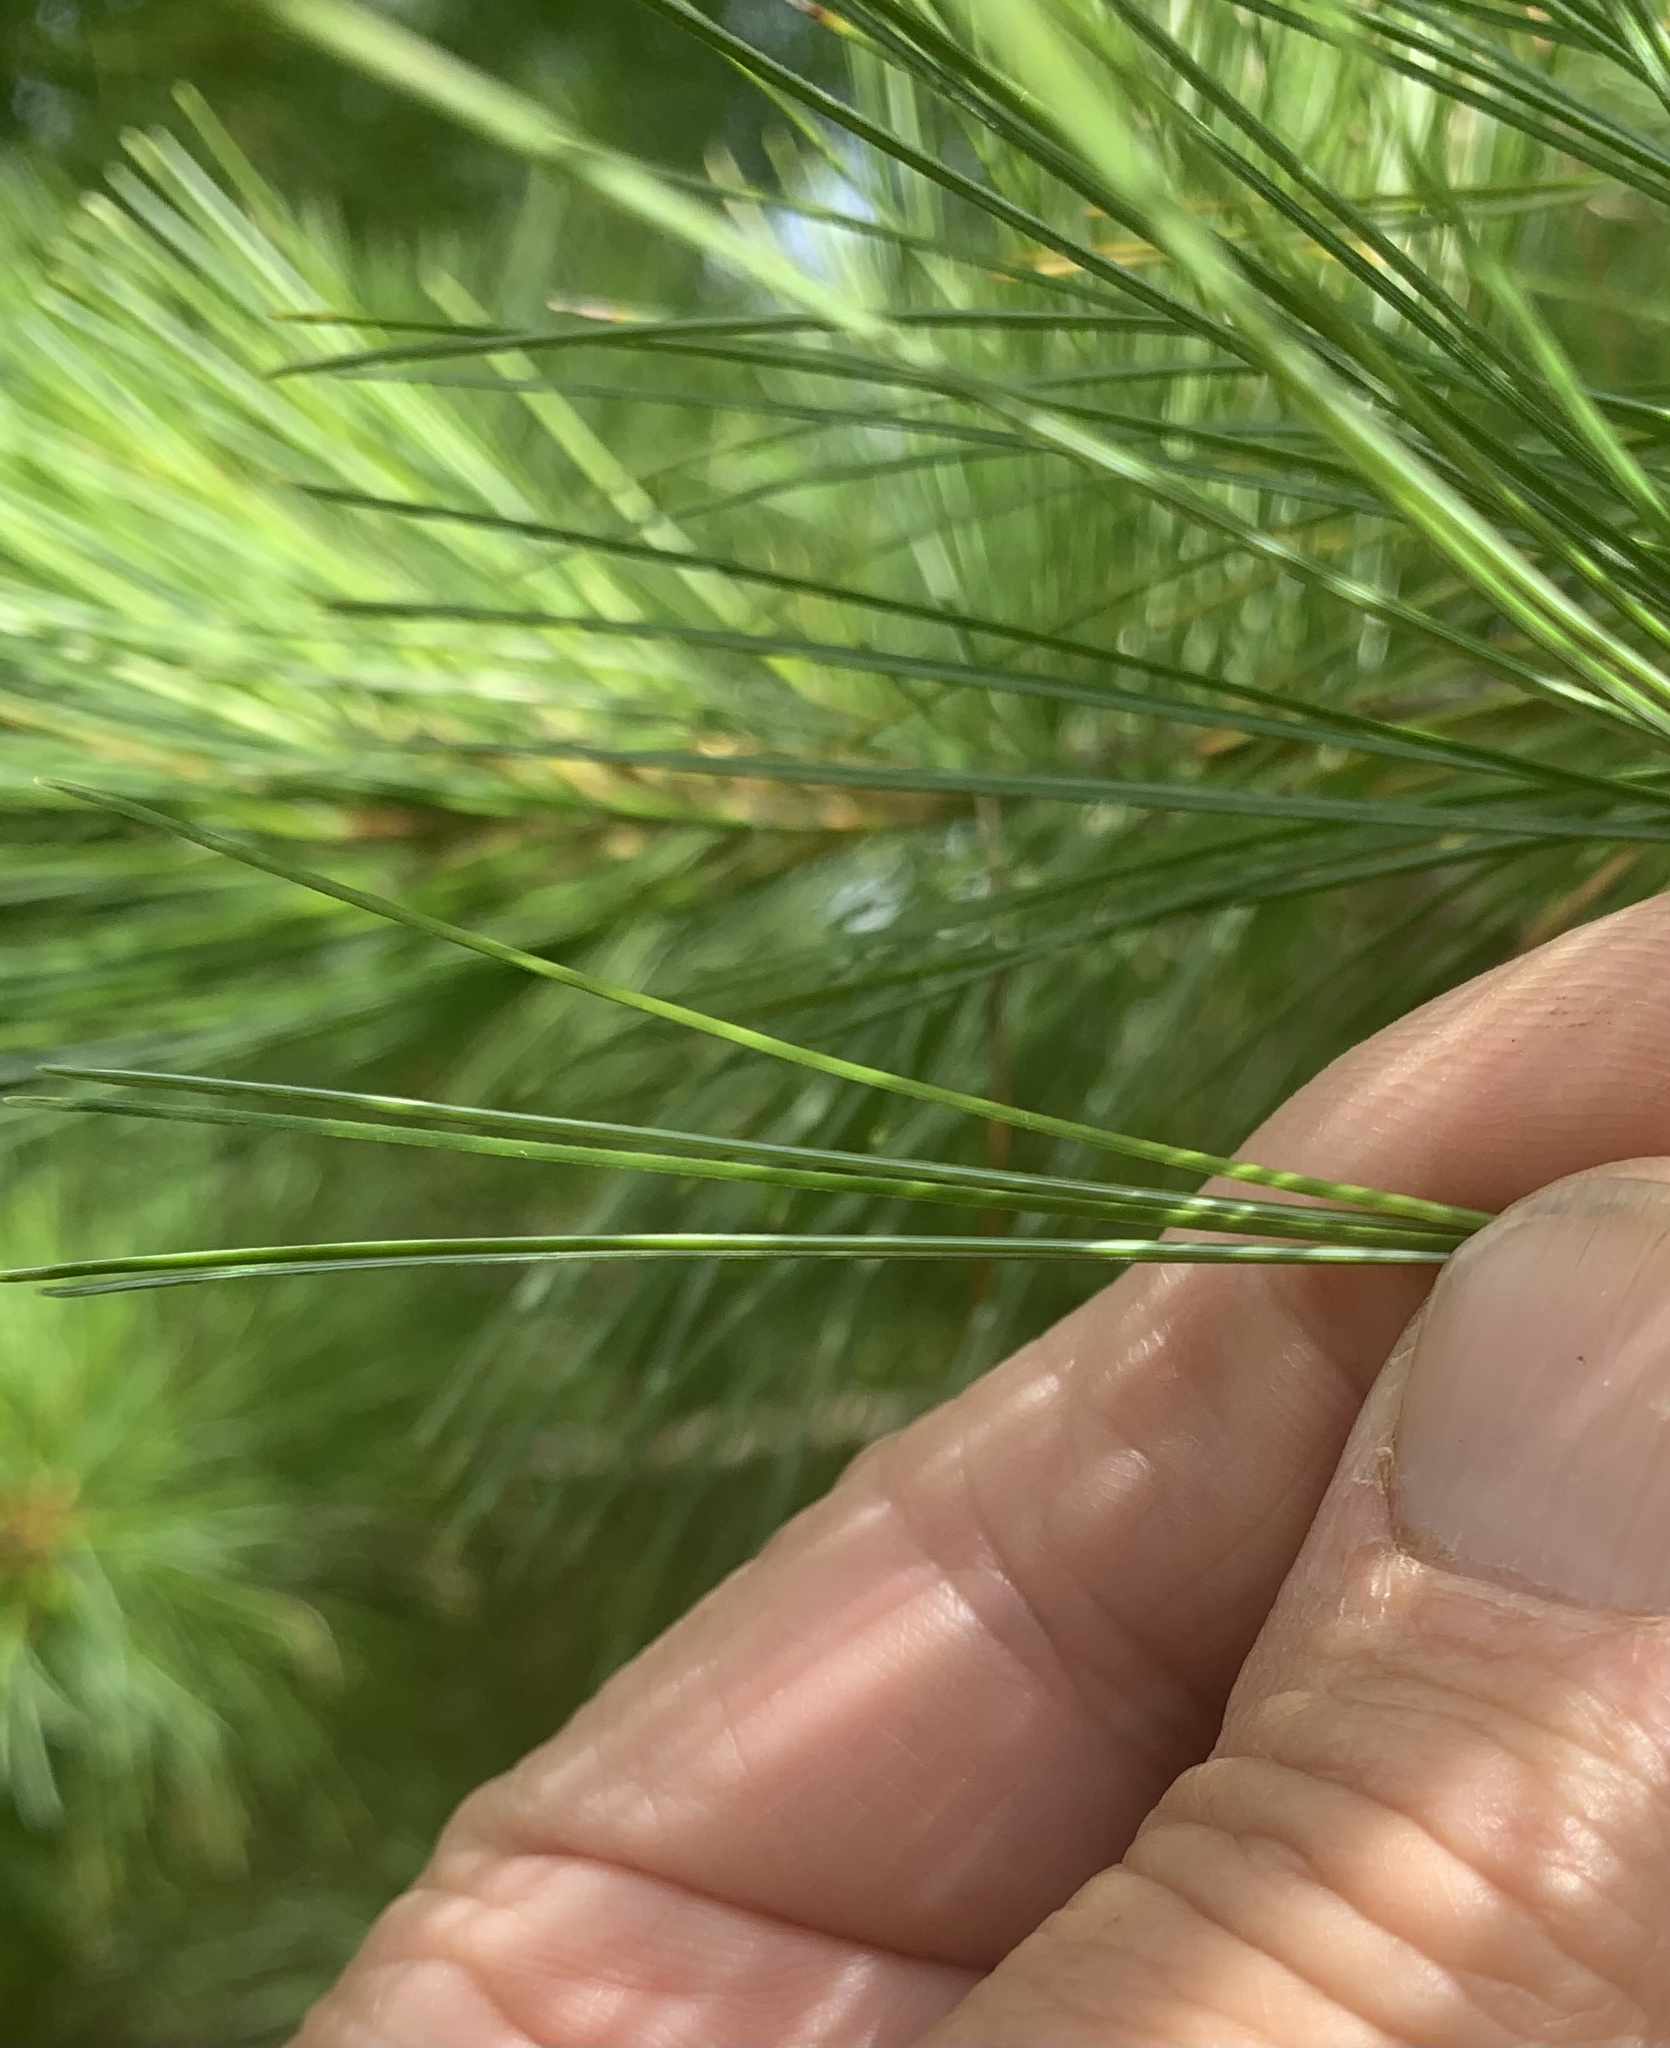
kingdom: Plantae
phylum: Tracheophyta
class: Pinopsida
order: Pinales
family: Pinaceae
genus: Pinus
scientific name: Pinus strobus
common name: Weymouth pine
